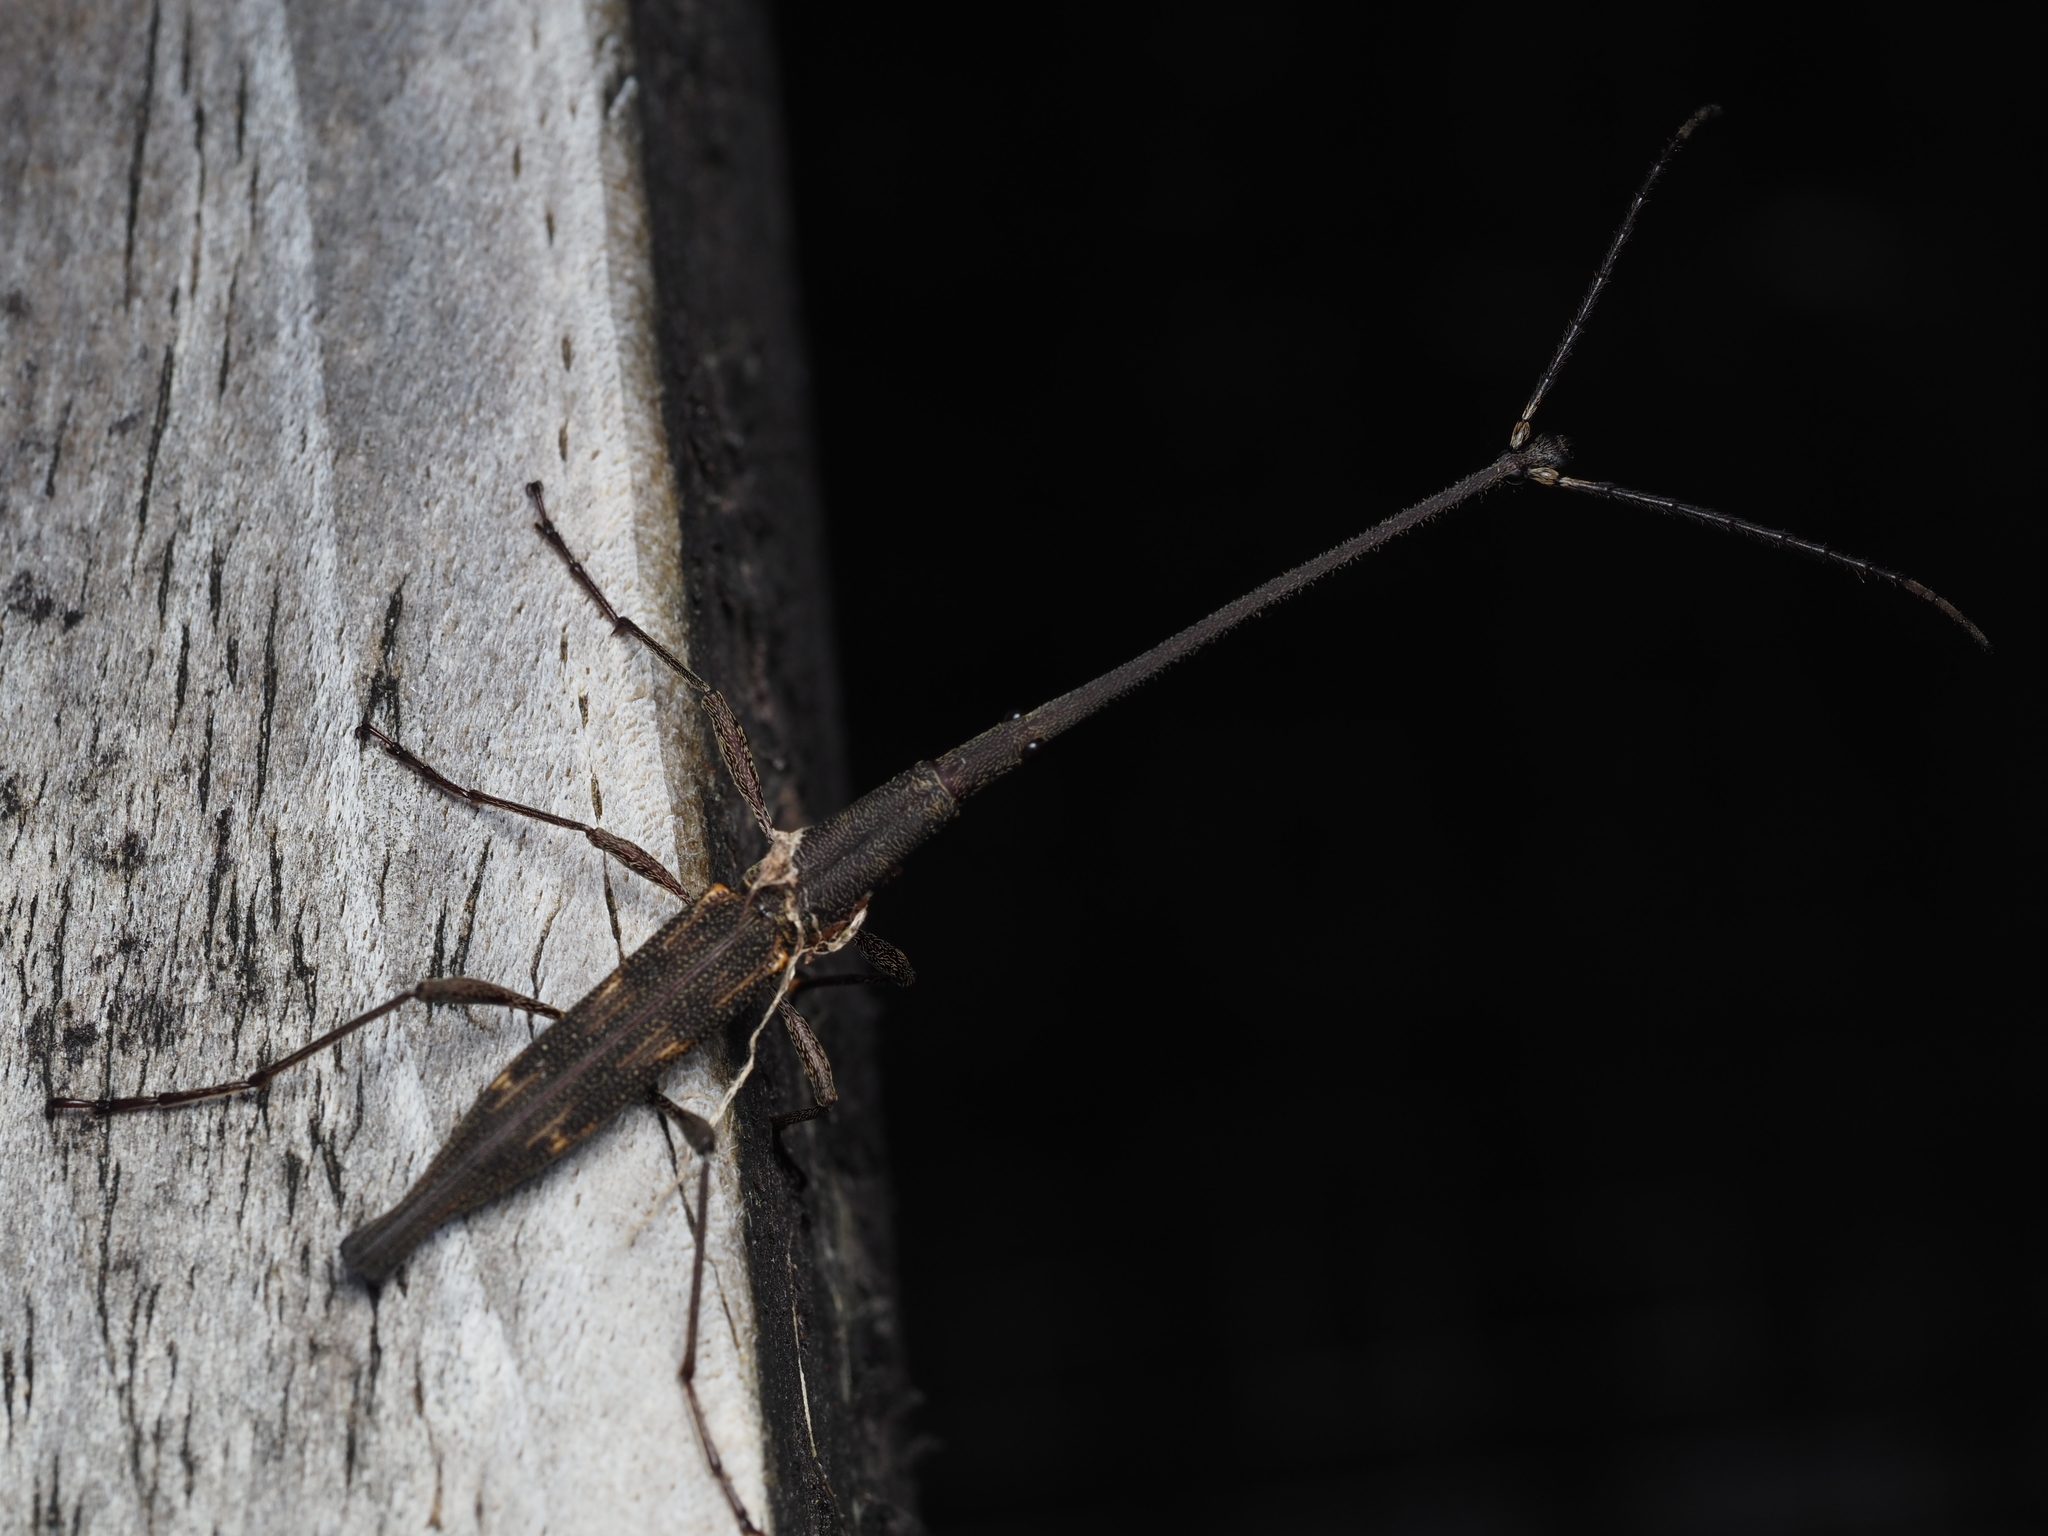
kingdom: Animalia
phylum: Arthropoda
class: Insecta
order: Coleoptera
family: Brentidae
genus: Lasiorhynchus
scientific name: Lasiorhynchus barbicornis
